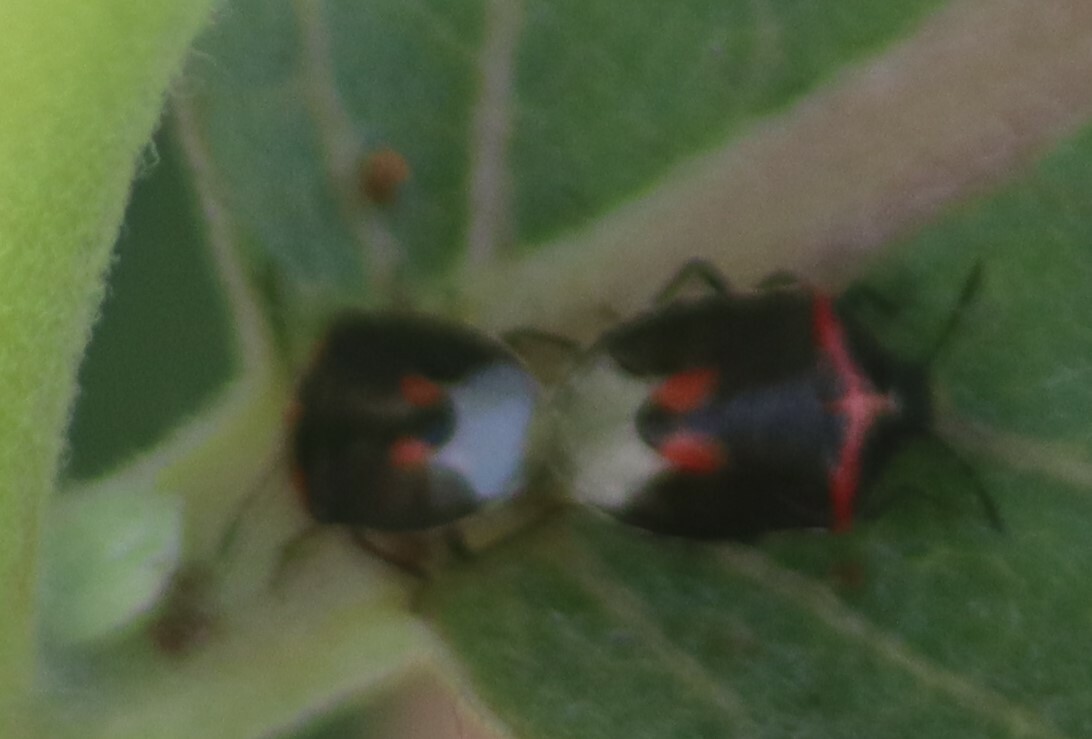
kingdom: Animalia
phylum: Arthropoda
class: Insecta
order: Hemiptera
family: Pentatomidae
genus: Cosmopepla
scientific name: Cosmopepla lintneriana
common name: Twice-stabbed stink bug
